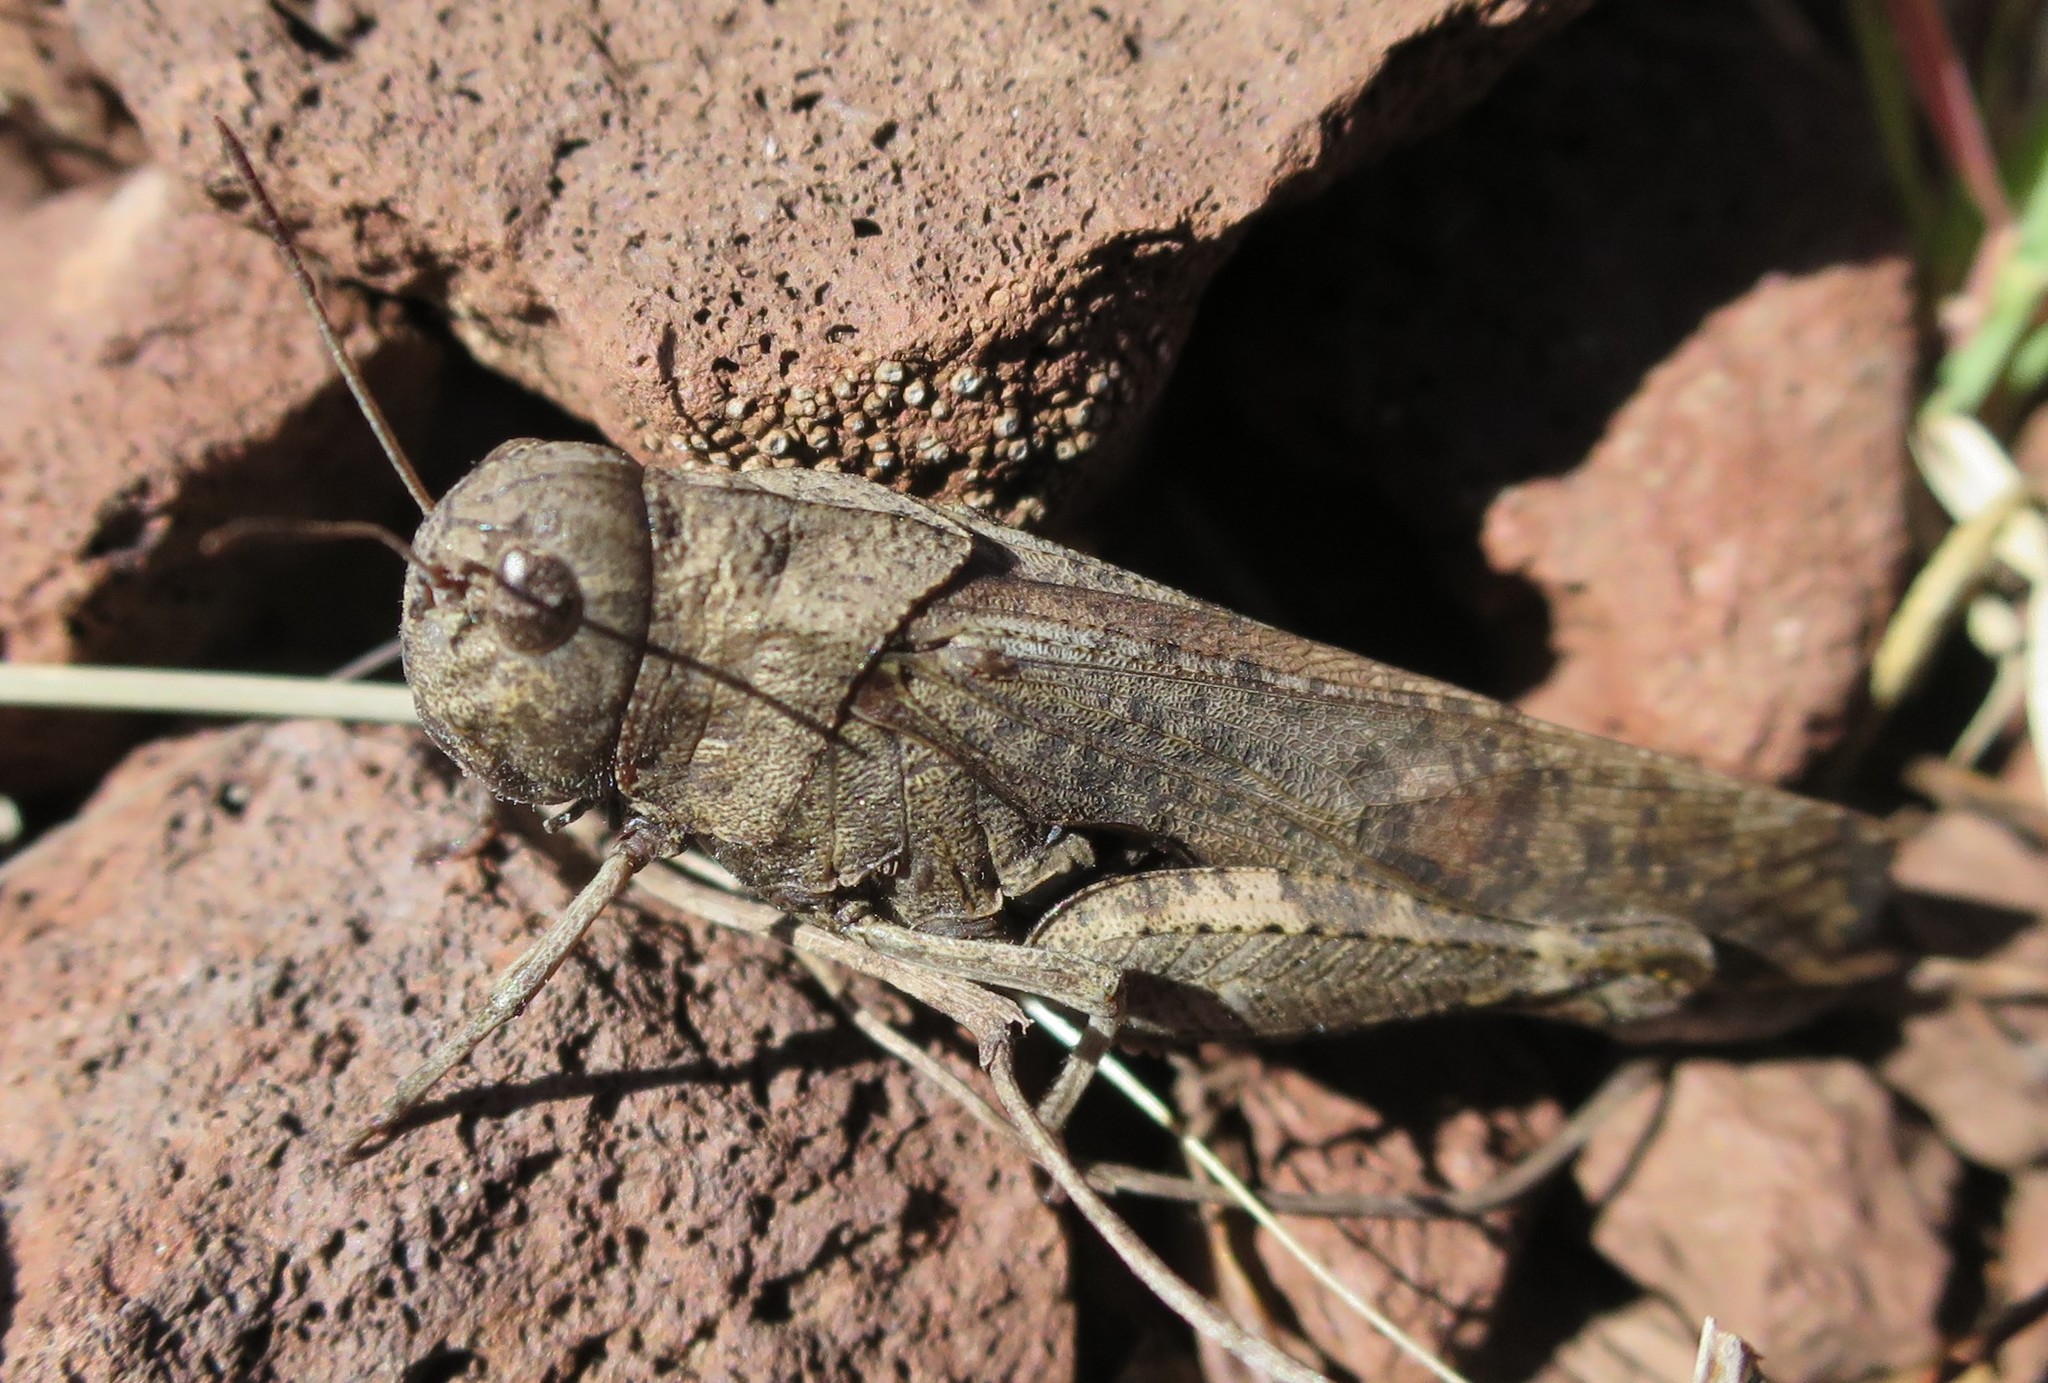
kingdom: Animalia
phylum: Arthropoda
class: Insecta
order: Orthoptera
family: Acrididae
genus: Arphia
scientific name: Arphia pseudo-nietana
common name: Red-winged grasshopper
